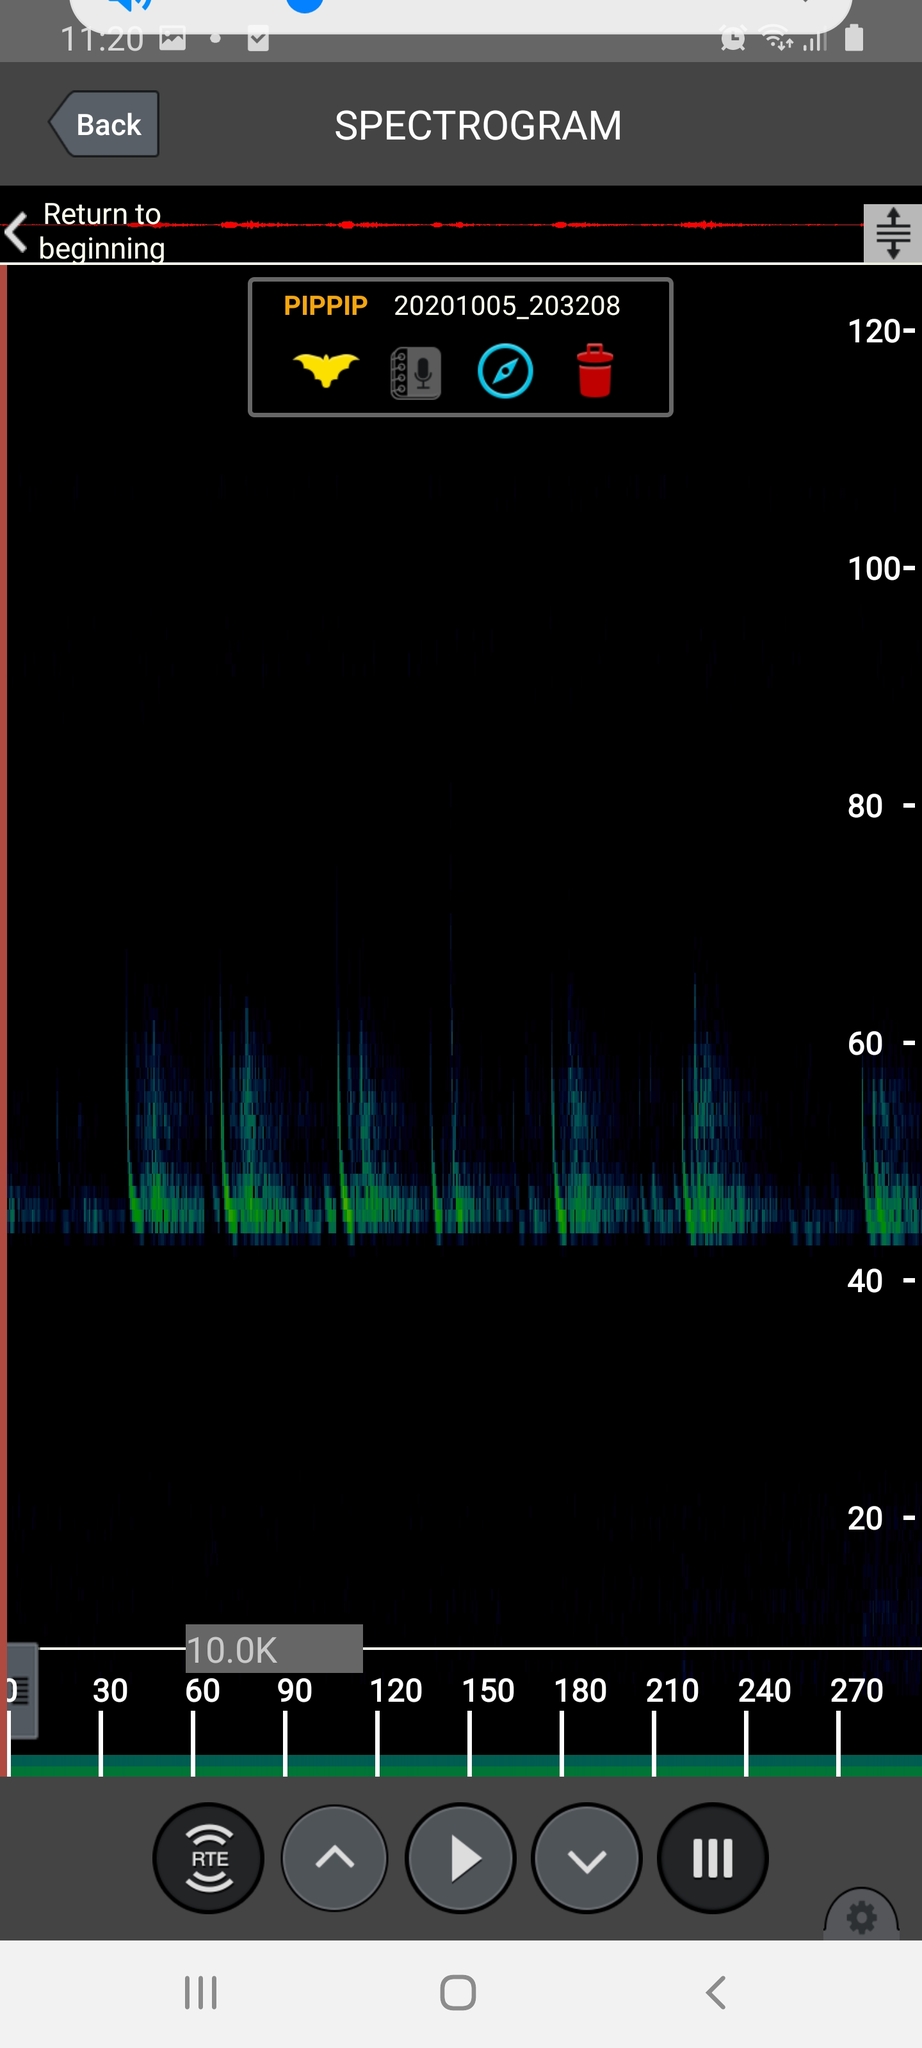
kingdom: Animalia
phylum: Chordata
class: Mammalia
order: Chiroptera
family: Vespertilionidae
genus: Pipistrellus
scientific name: Pipistrellus pipistrellus
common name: Common pipistrelle
